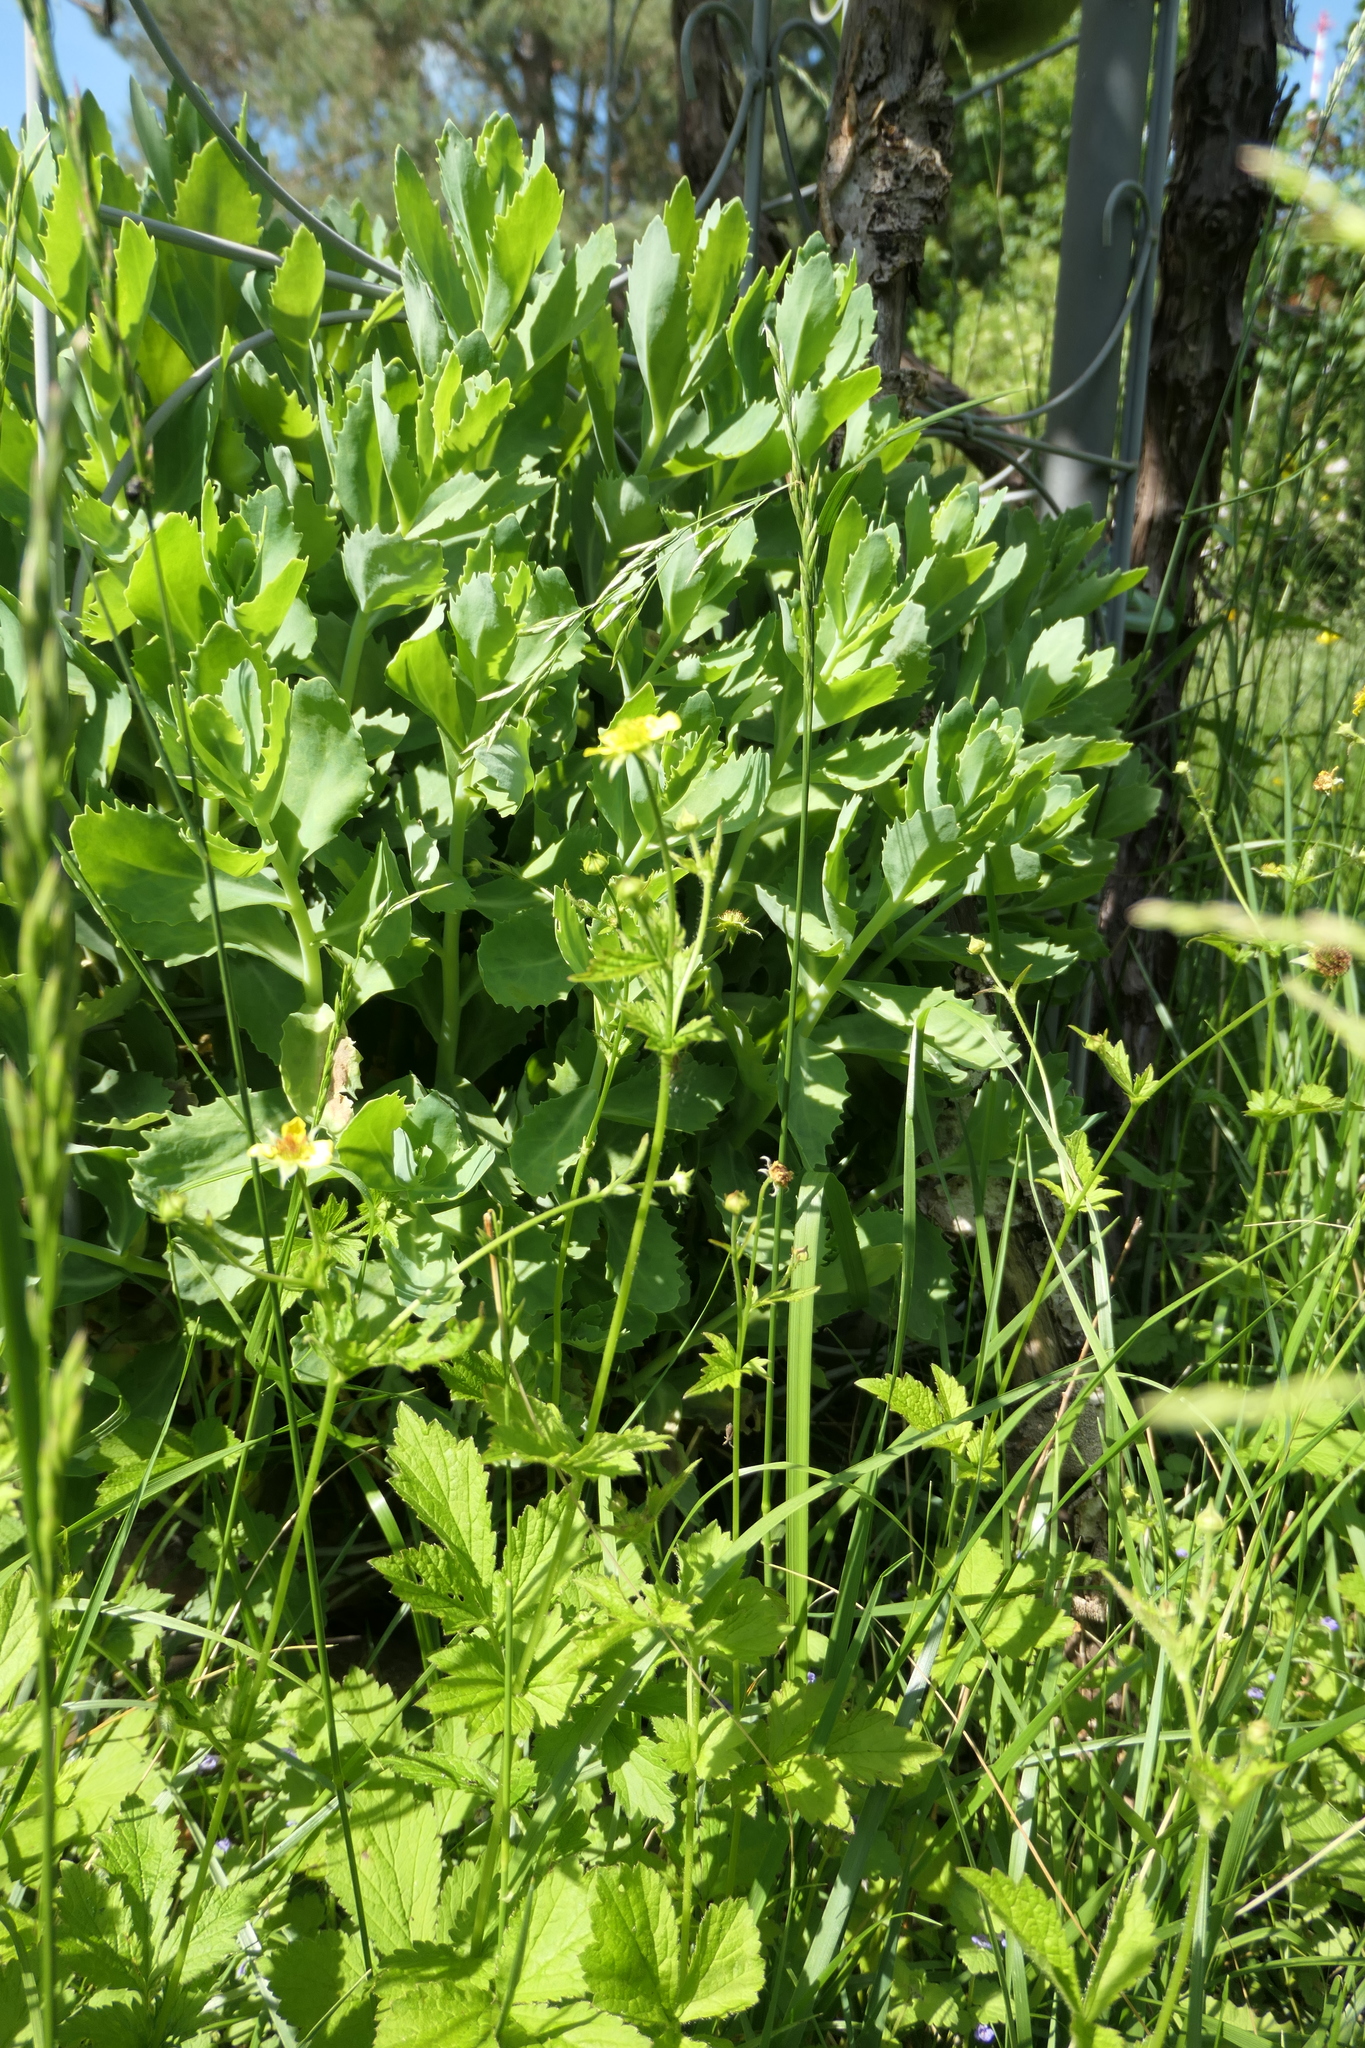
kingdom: Plantae
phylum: Tracheophyta
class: Magnoliopsida
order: Rosales
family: Rosaceae
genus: Geum
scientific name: Geum urbanum
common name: Wood avens
